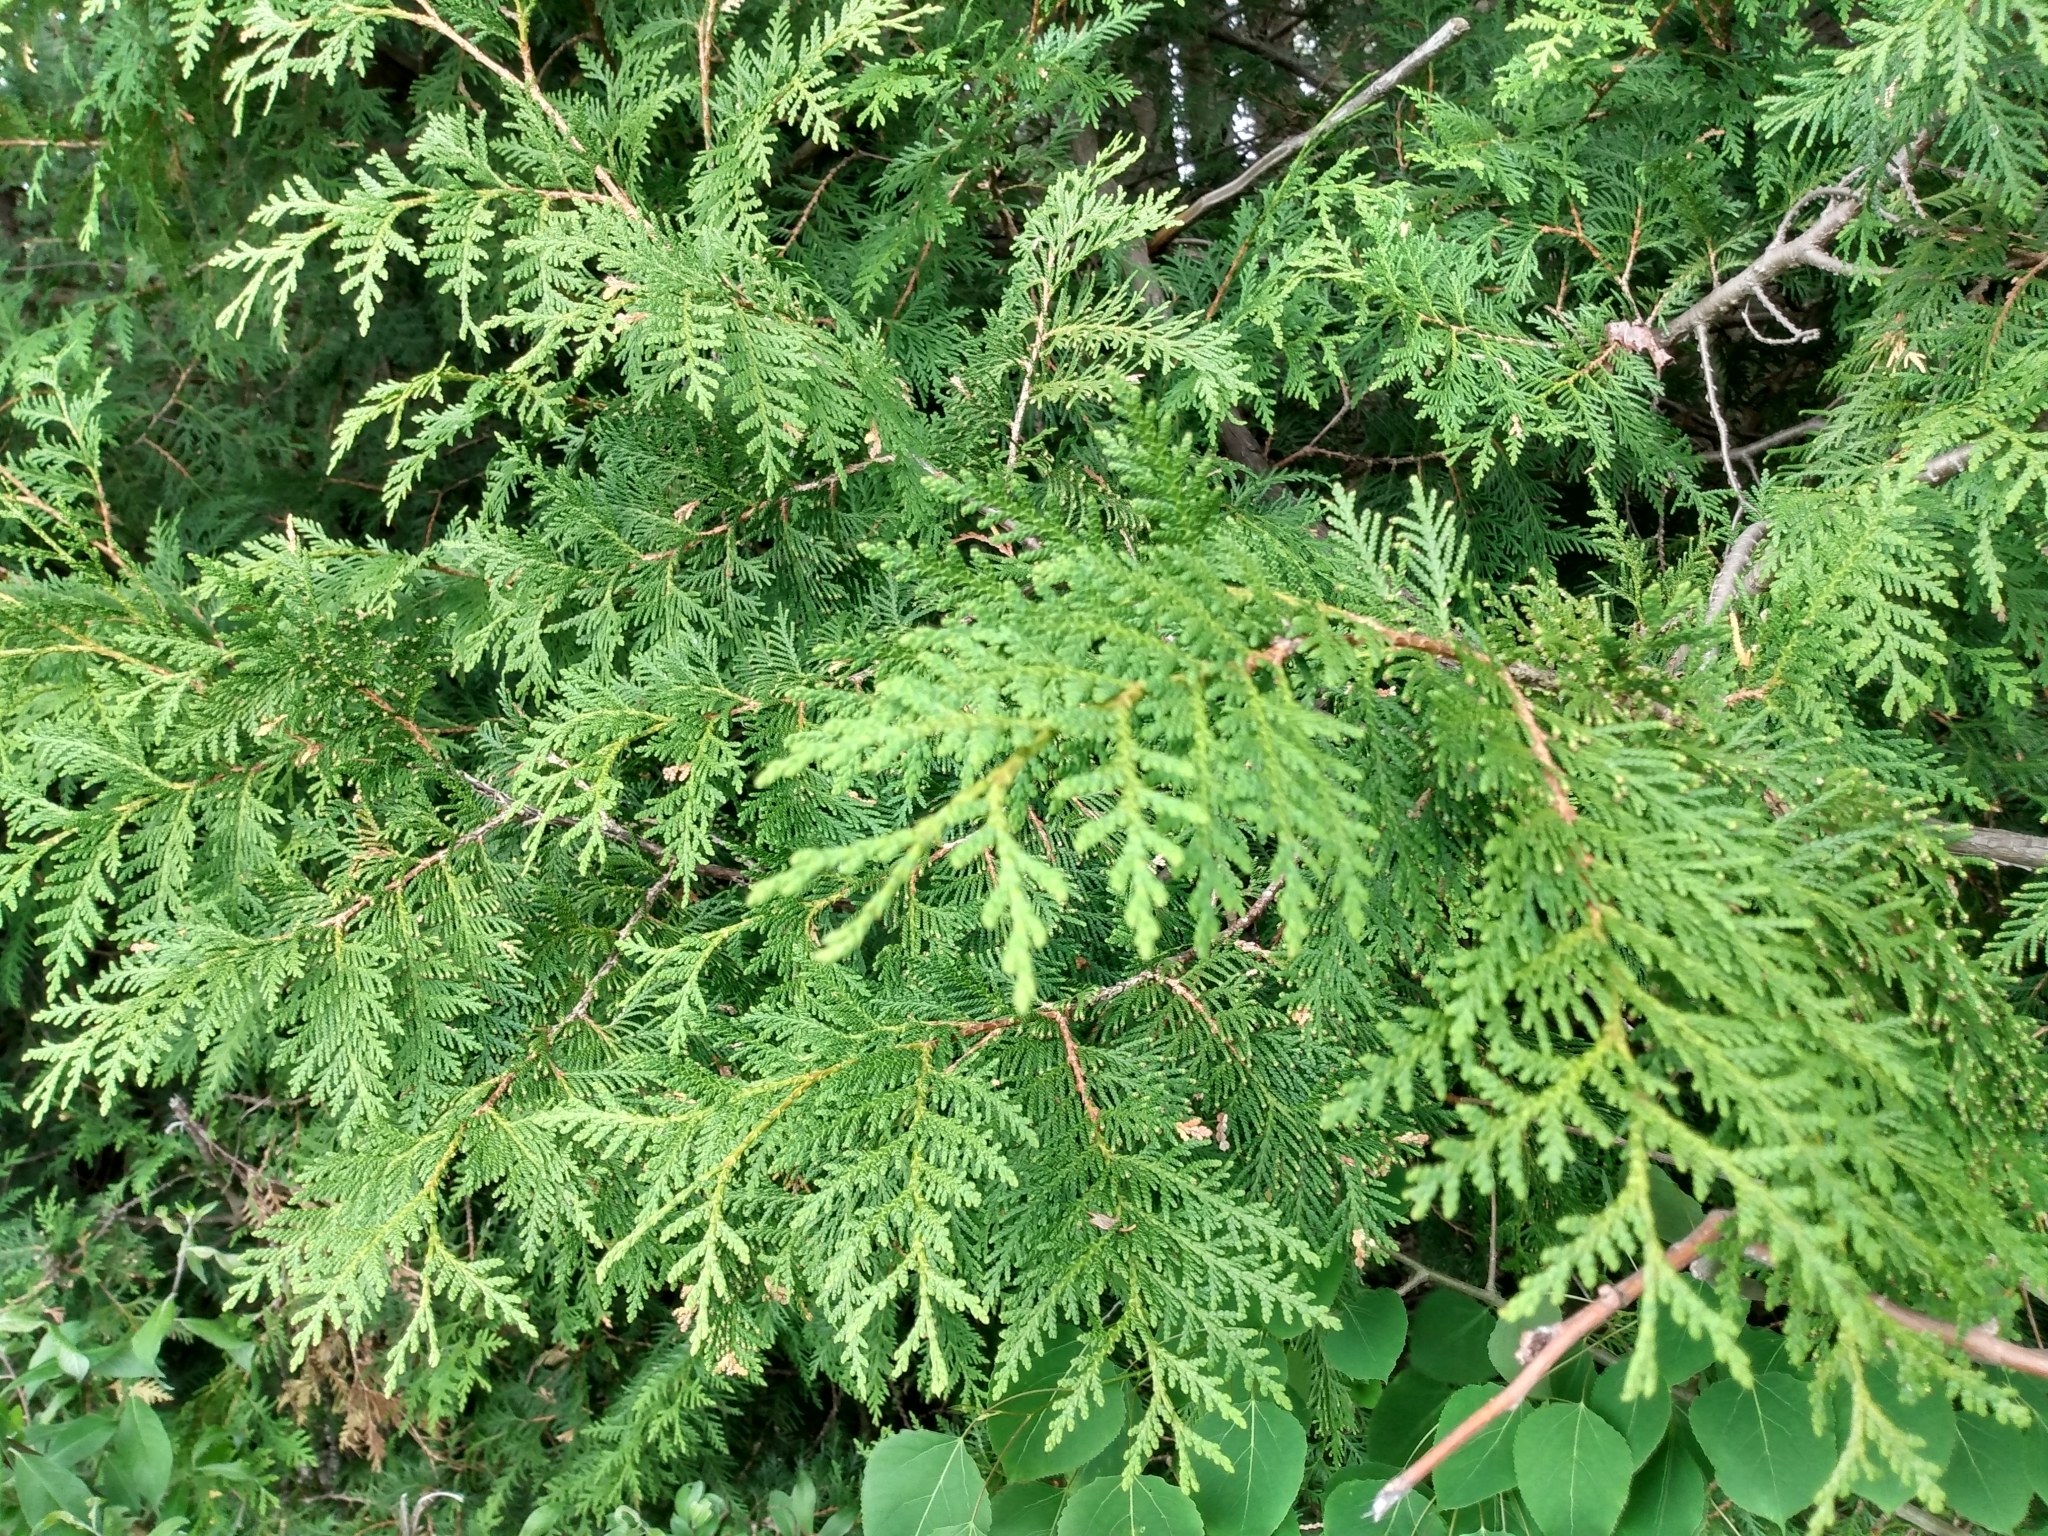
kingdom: Plantae
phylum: Tracheophyta
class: Pinopsida
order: Pinales
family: Cupressaceae
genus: Thuja
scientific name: Thuja occidentalis
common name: Northern white-cedar
